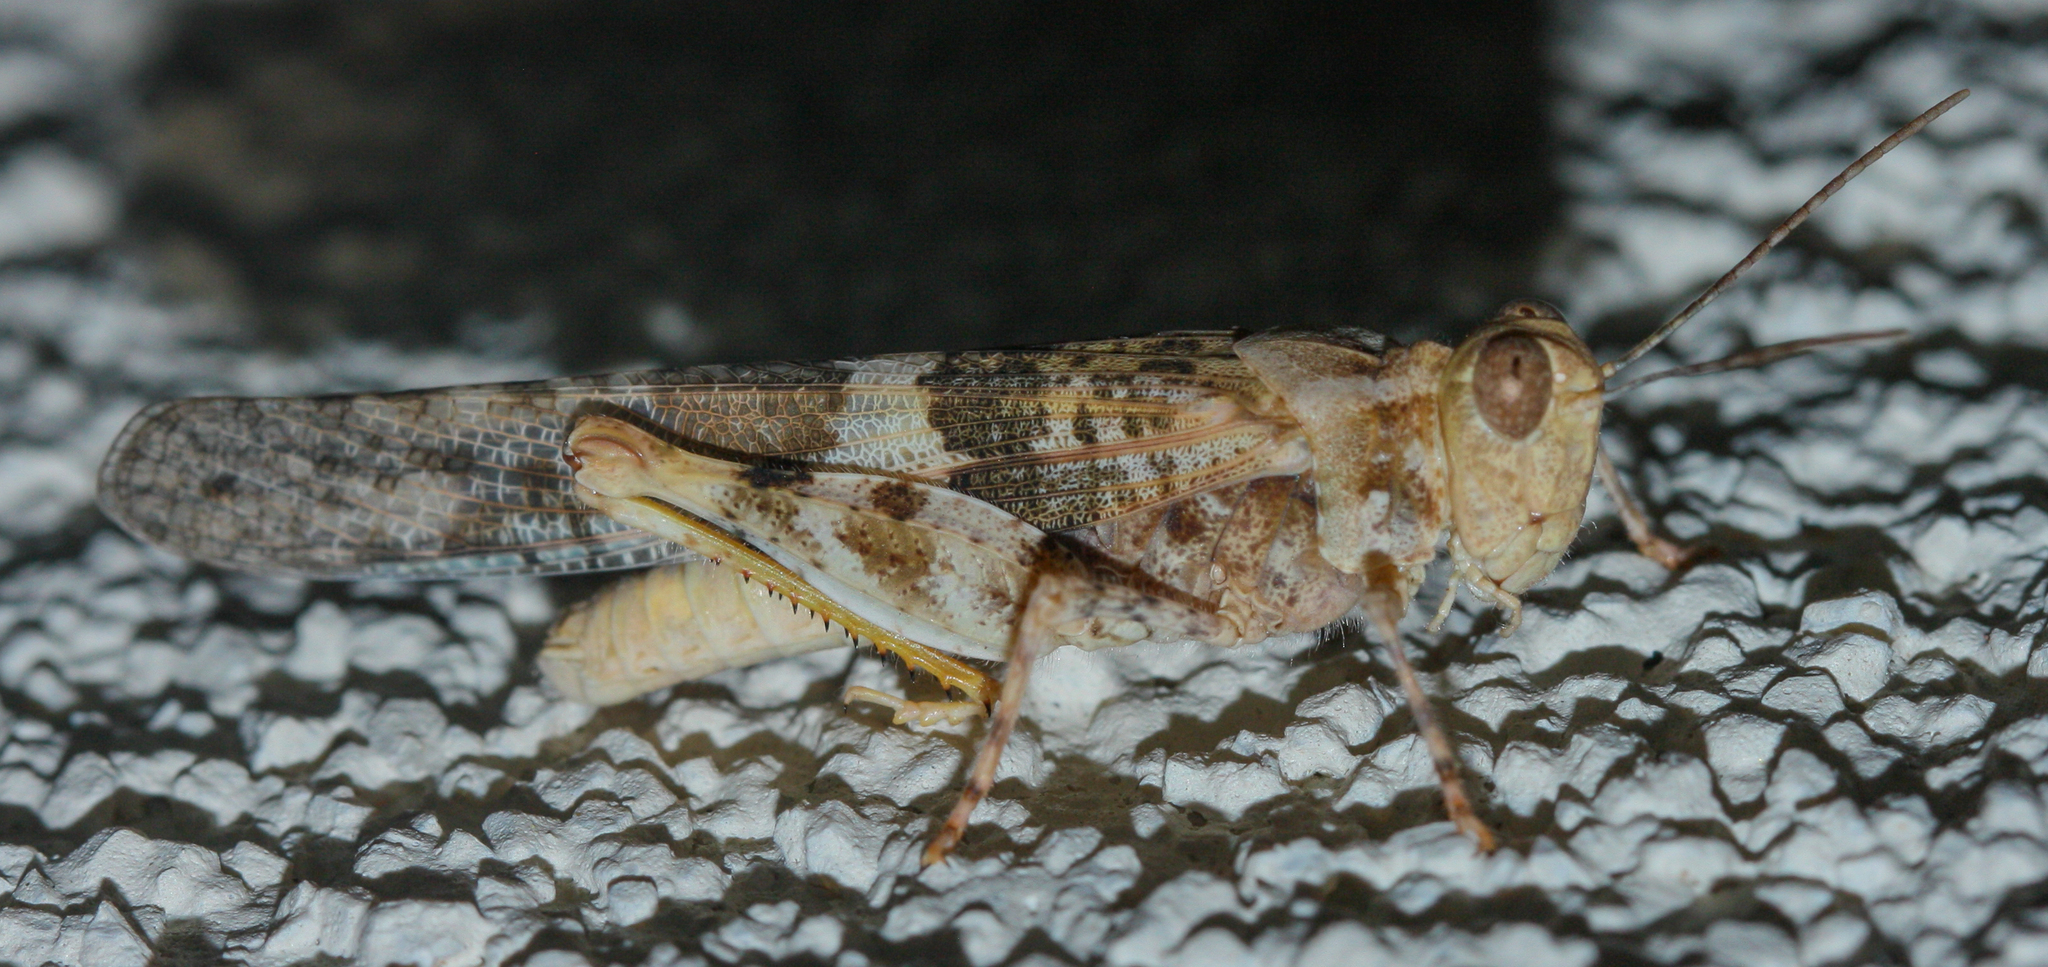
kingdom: Animalia
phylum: Arthropoda
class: Insecta
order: Orthoptera
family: Acrididae
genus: Trimerotropis
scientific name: Trimerotropis pallidipennis
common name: Pallid-winged grasshopper
